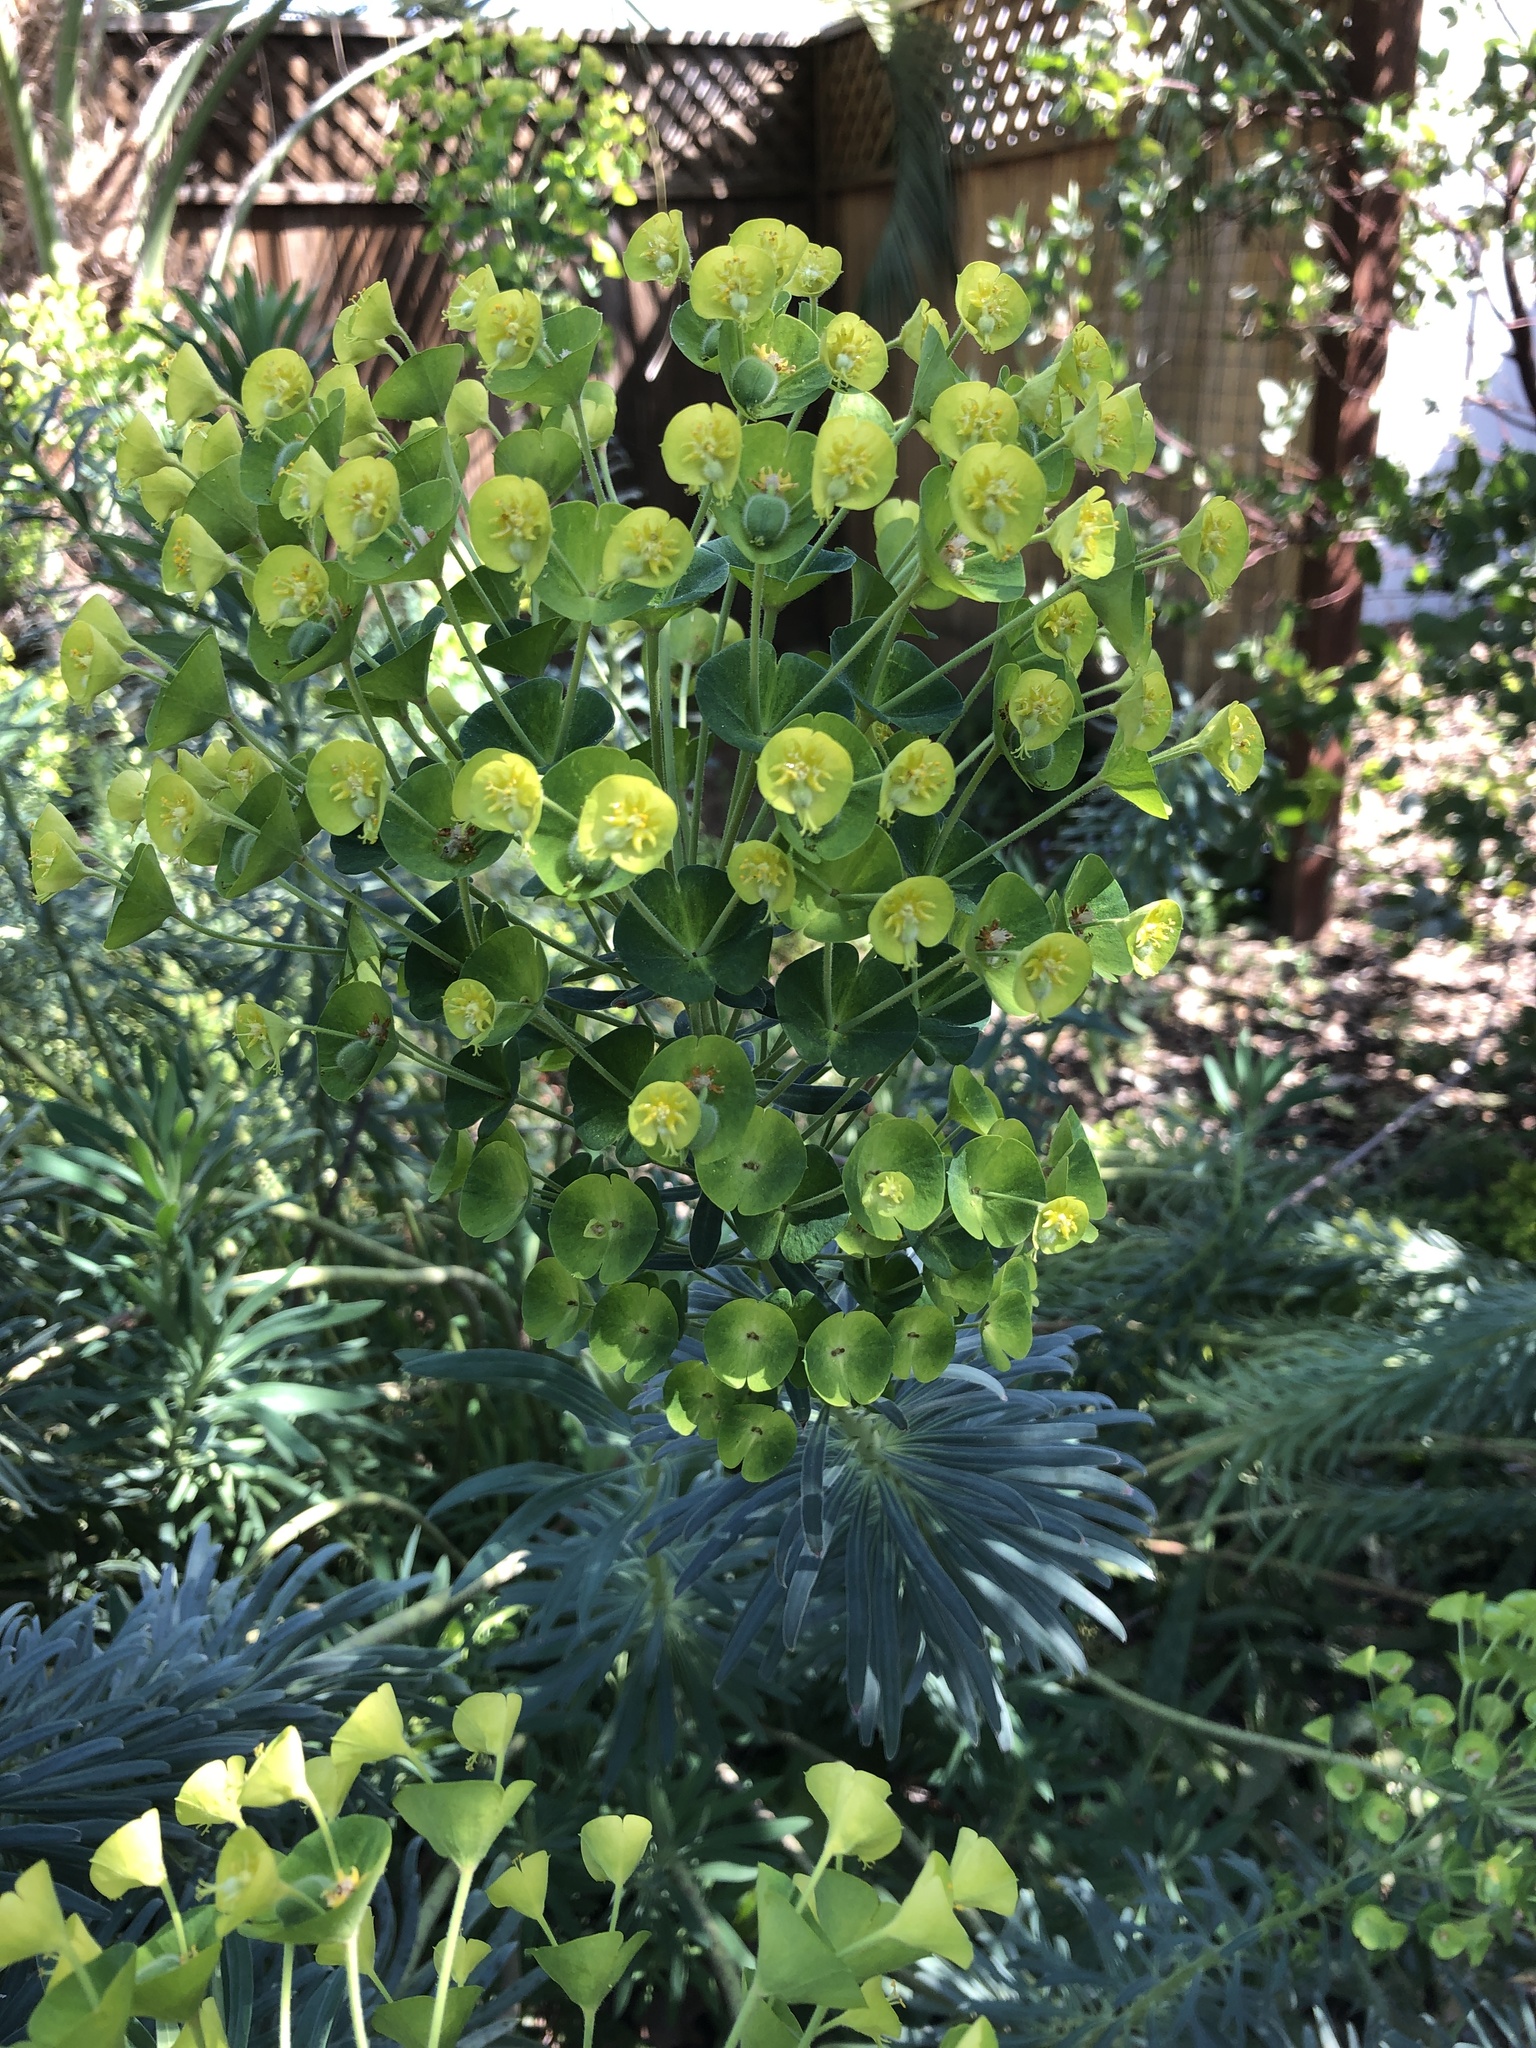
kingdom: Plantae
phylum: Tracheophyta
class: Magnoliopsida
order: Malpighiales
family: Euphorbiaceae
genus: Euphorbia
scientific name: Euphorbia characias
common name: Mediterranean spurge
